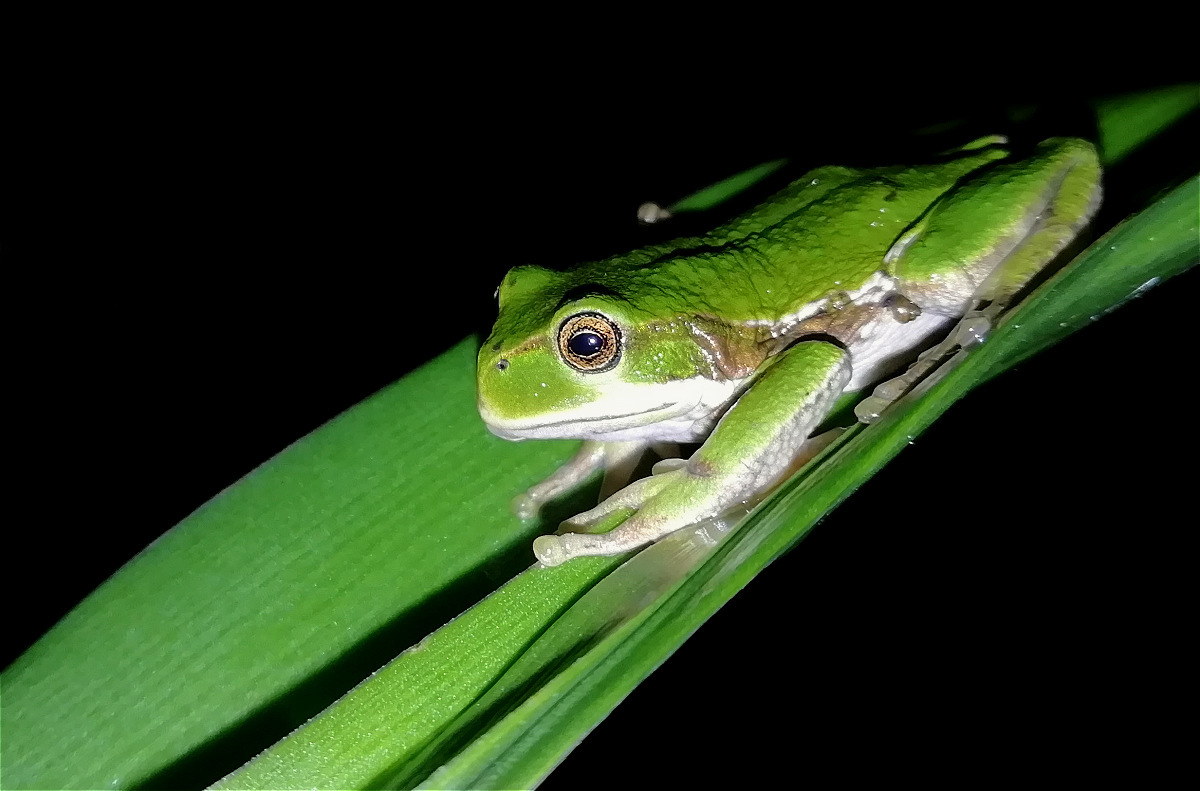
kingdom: Animalia
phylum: Chordata
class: Amphibia
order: Anura
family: Hemiphractidae
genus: Gastrotheca
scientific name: Gastrotheca cuencana
